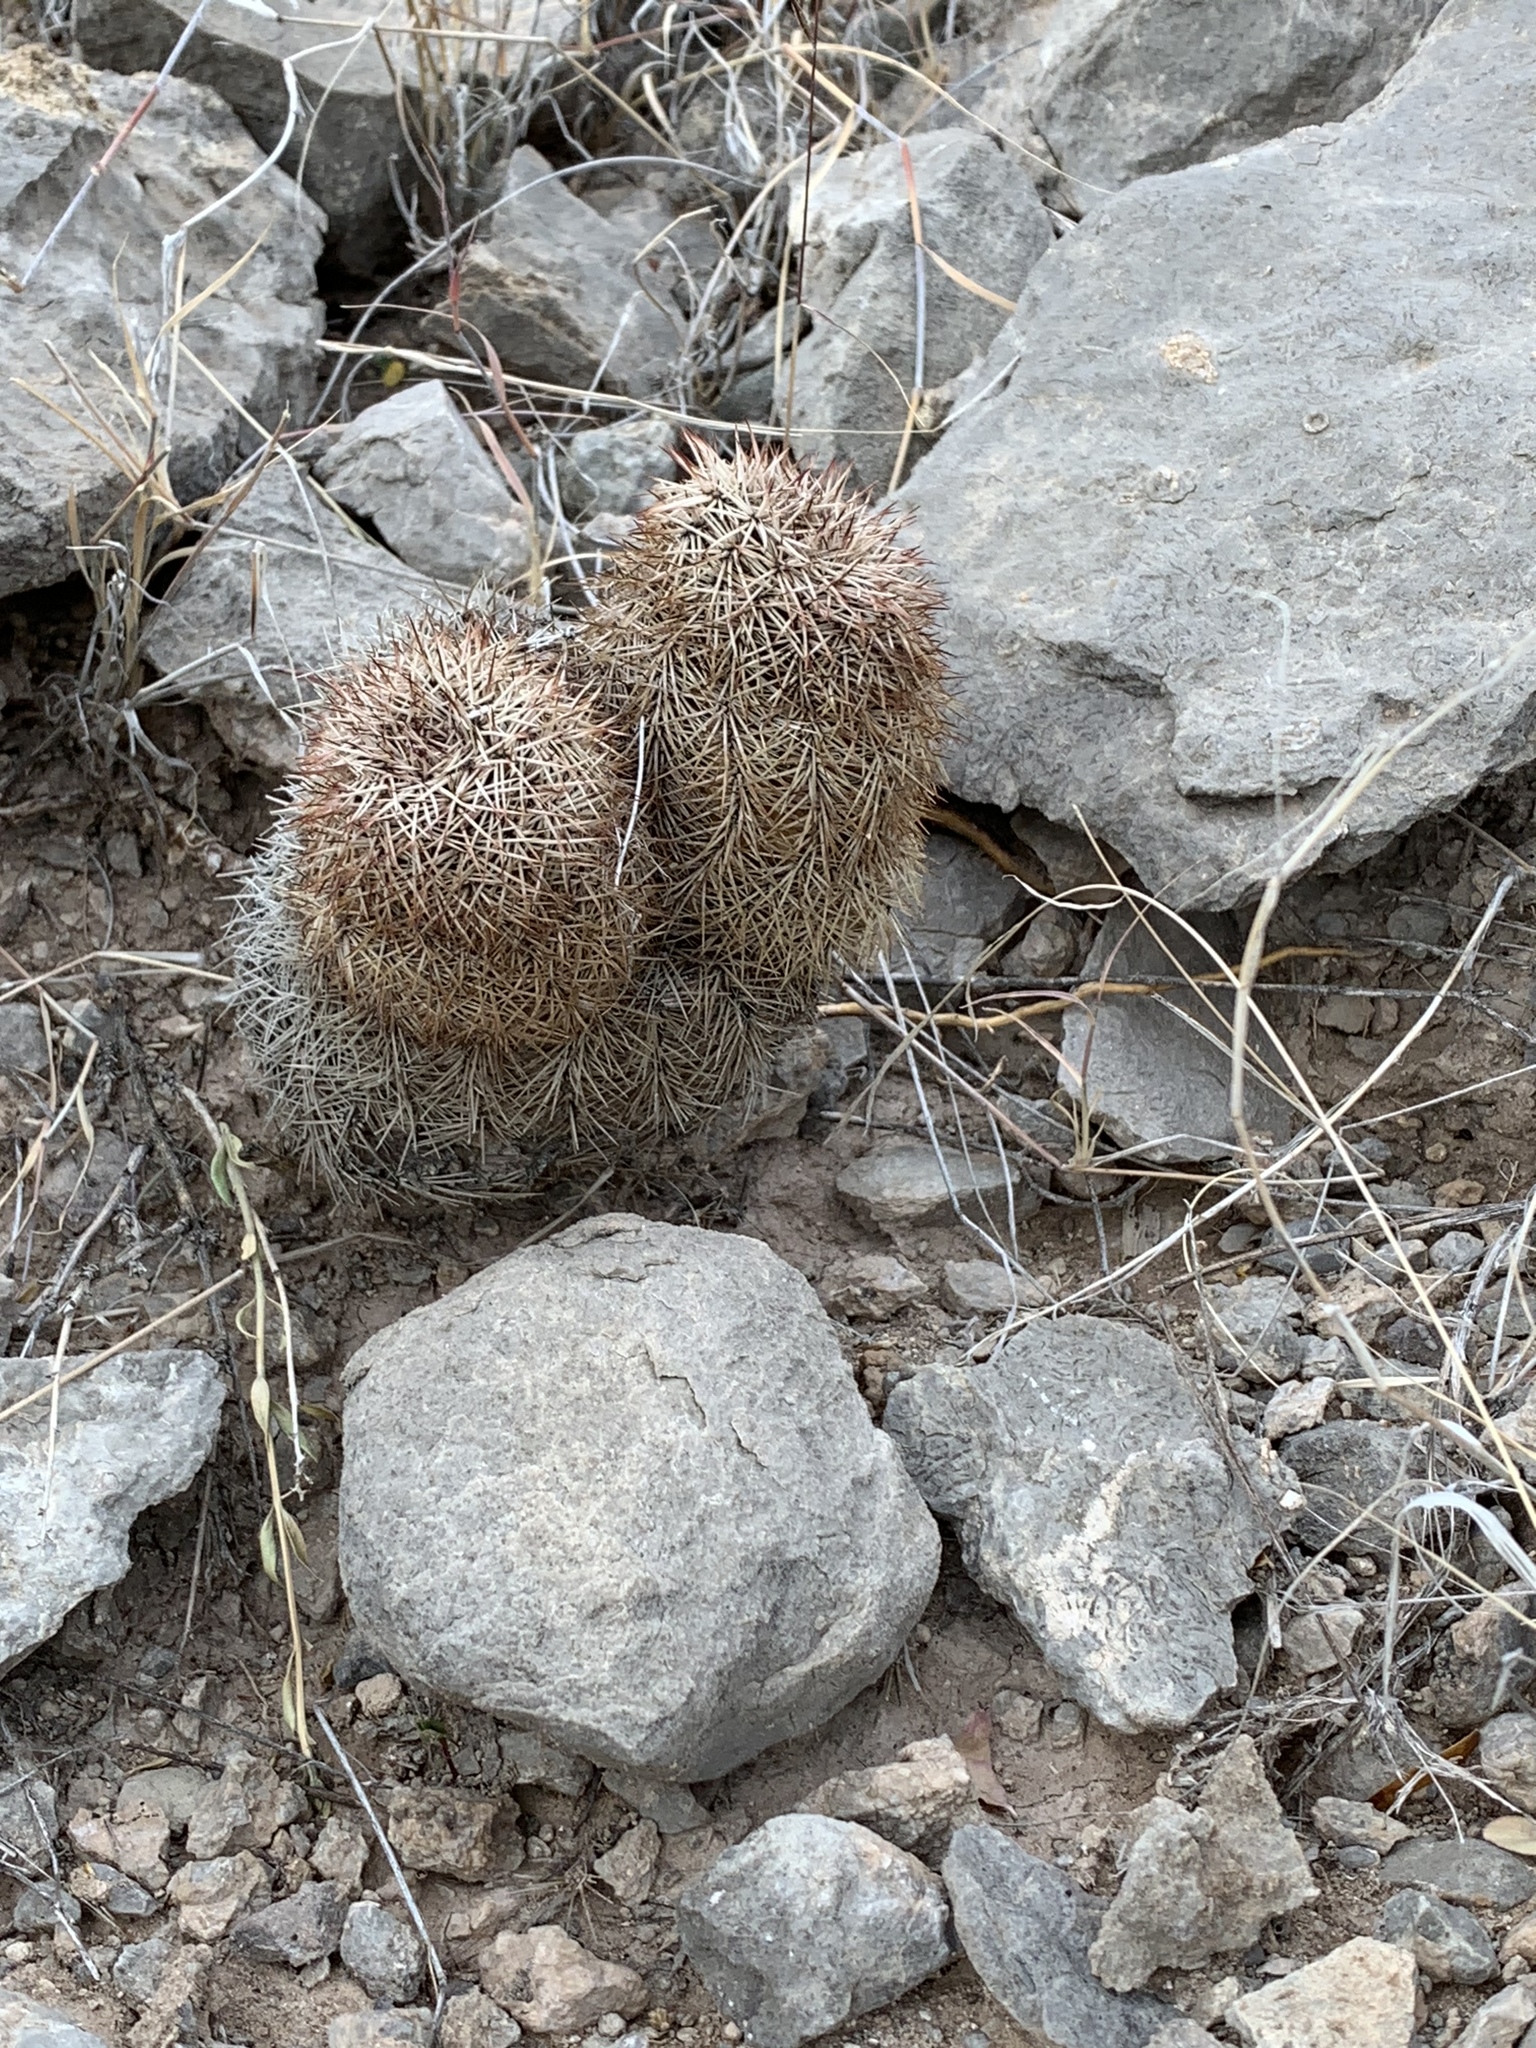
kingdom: Plantae
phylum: Tracheophyta
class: Magnoliopsida
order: Caryophyllales
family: Cactaceae
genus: Echinocereus
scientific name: Echinocereus dasyacanthus
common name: Spiny hedgehog cactus
